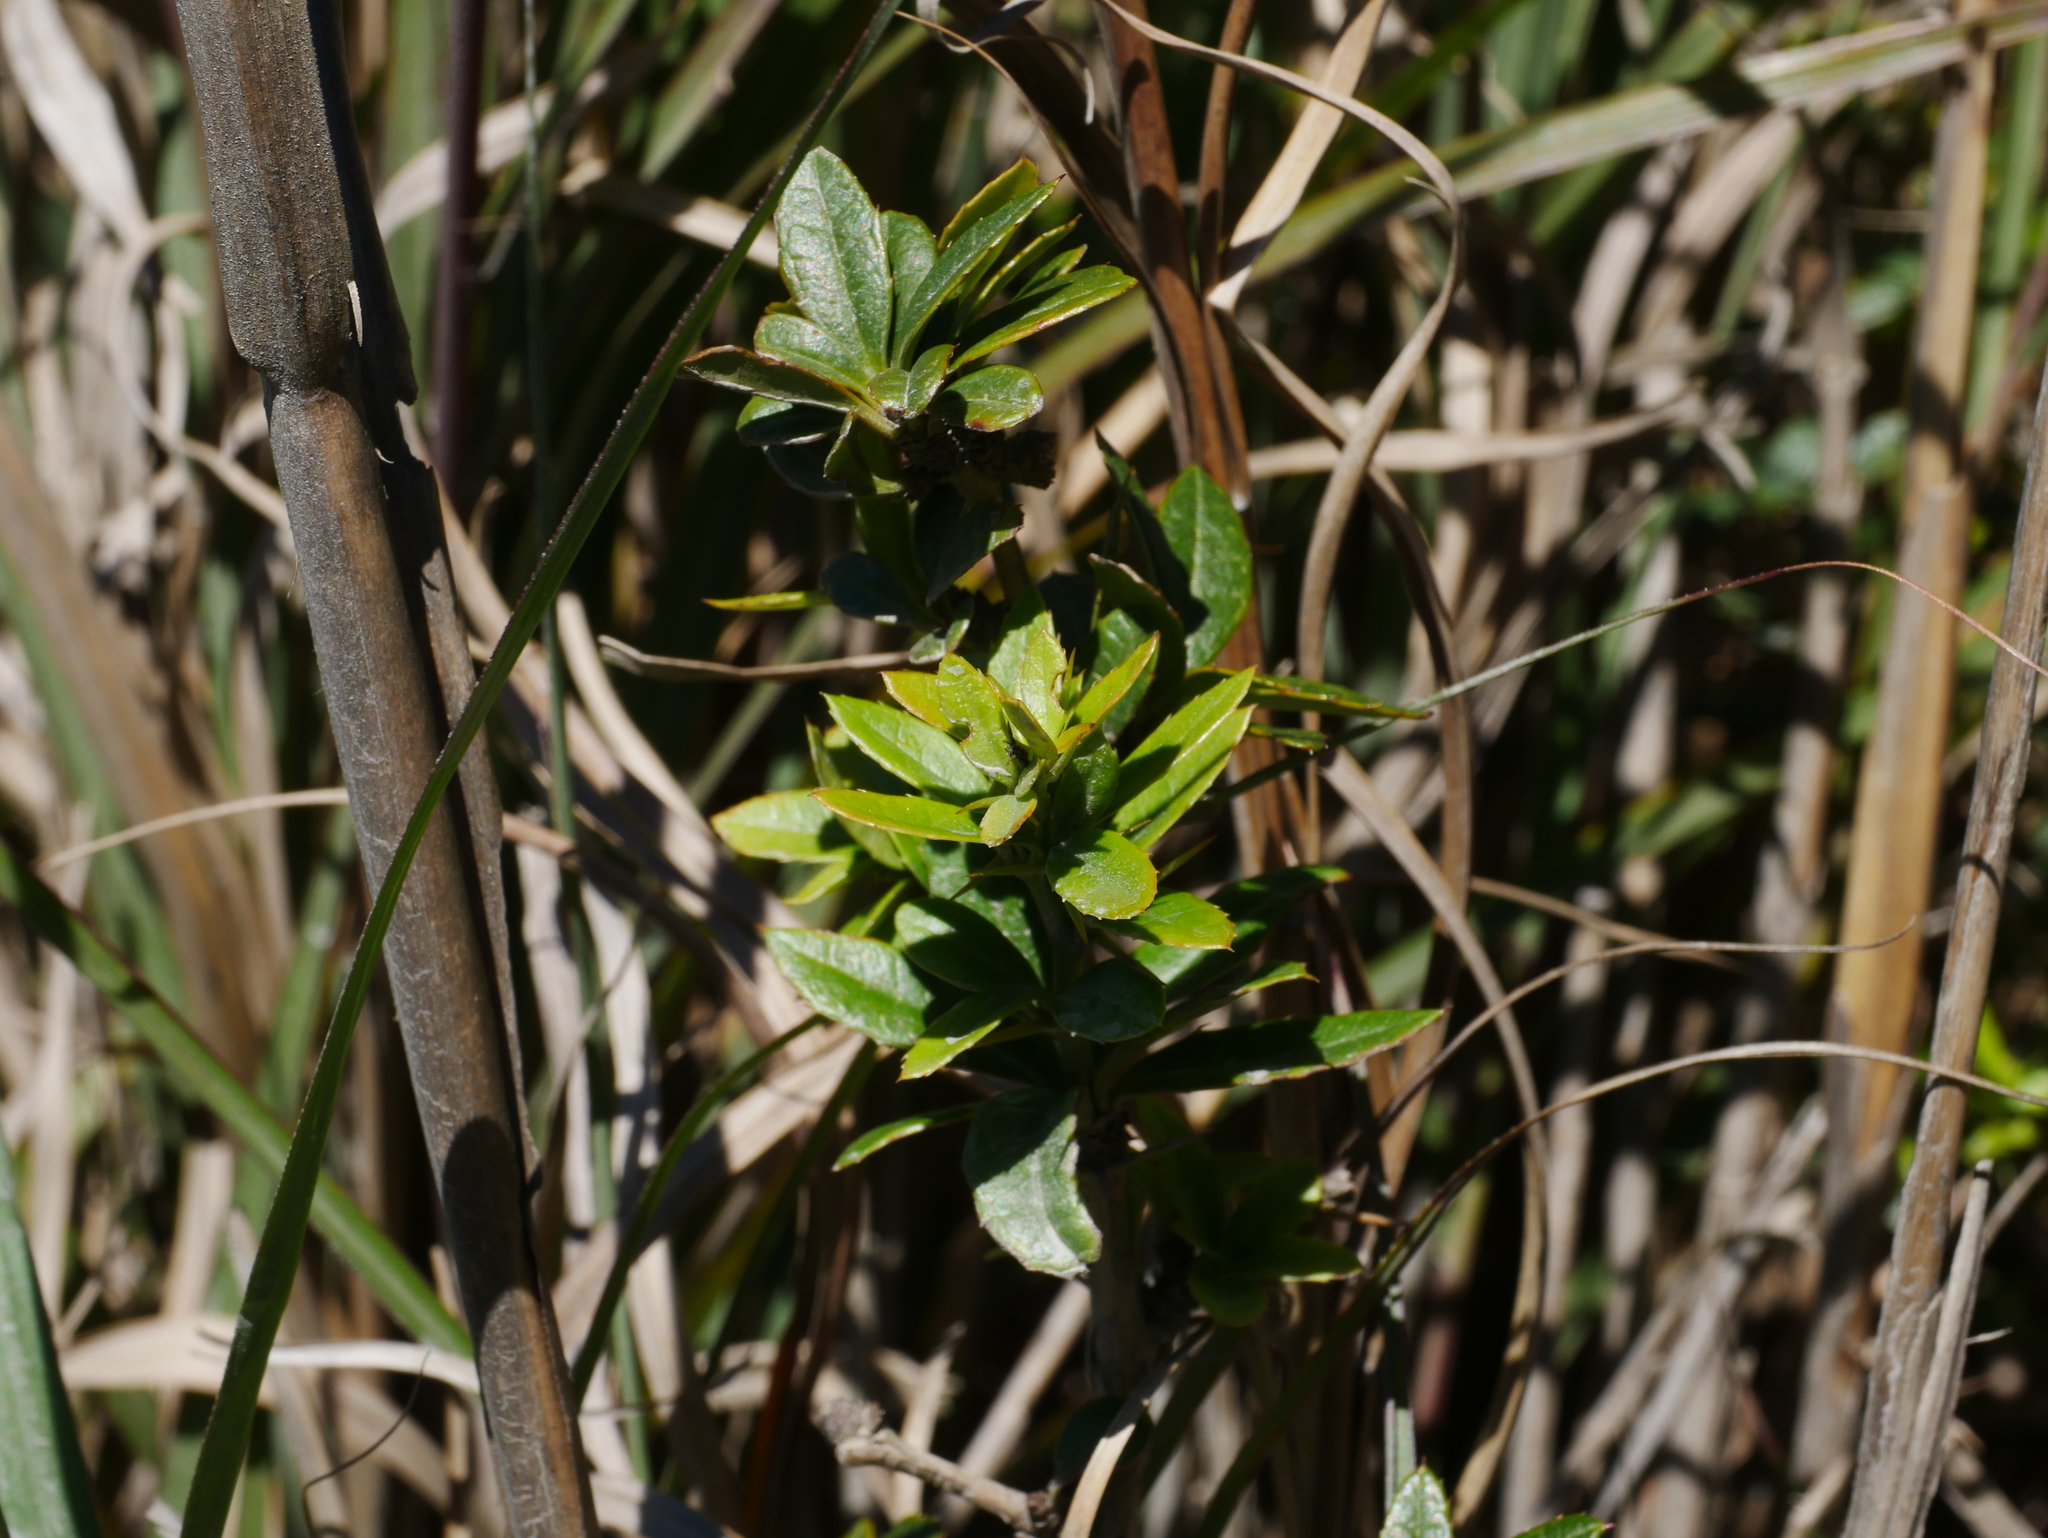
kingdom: Plantae
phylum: Tracheophyta
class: Magnoliopsida
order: Ranunculales
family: Berberidaceae
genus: Berberis
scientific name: Berberis kawakamii
